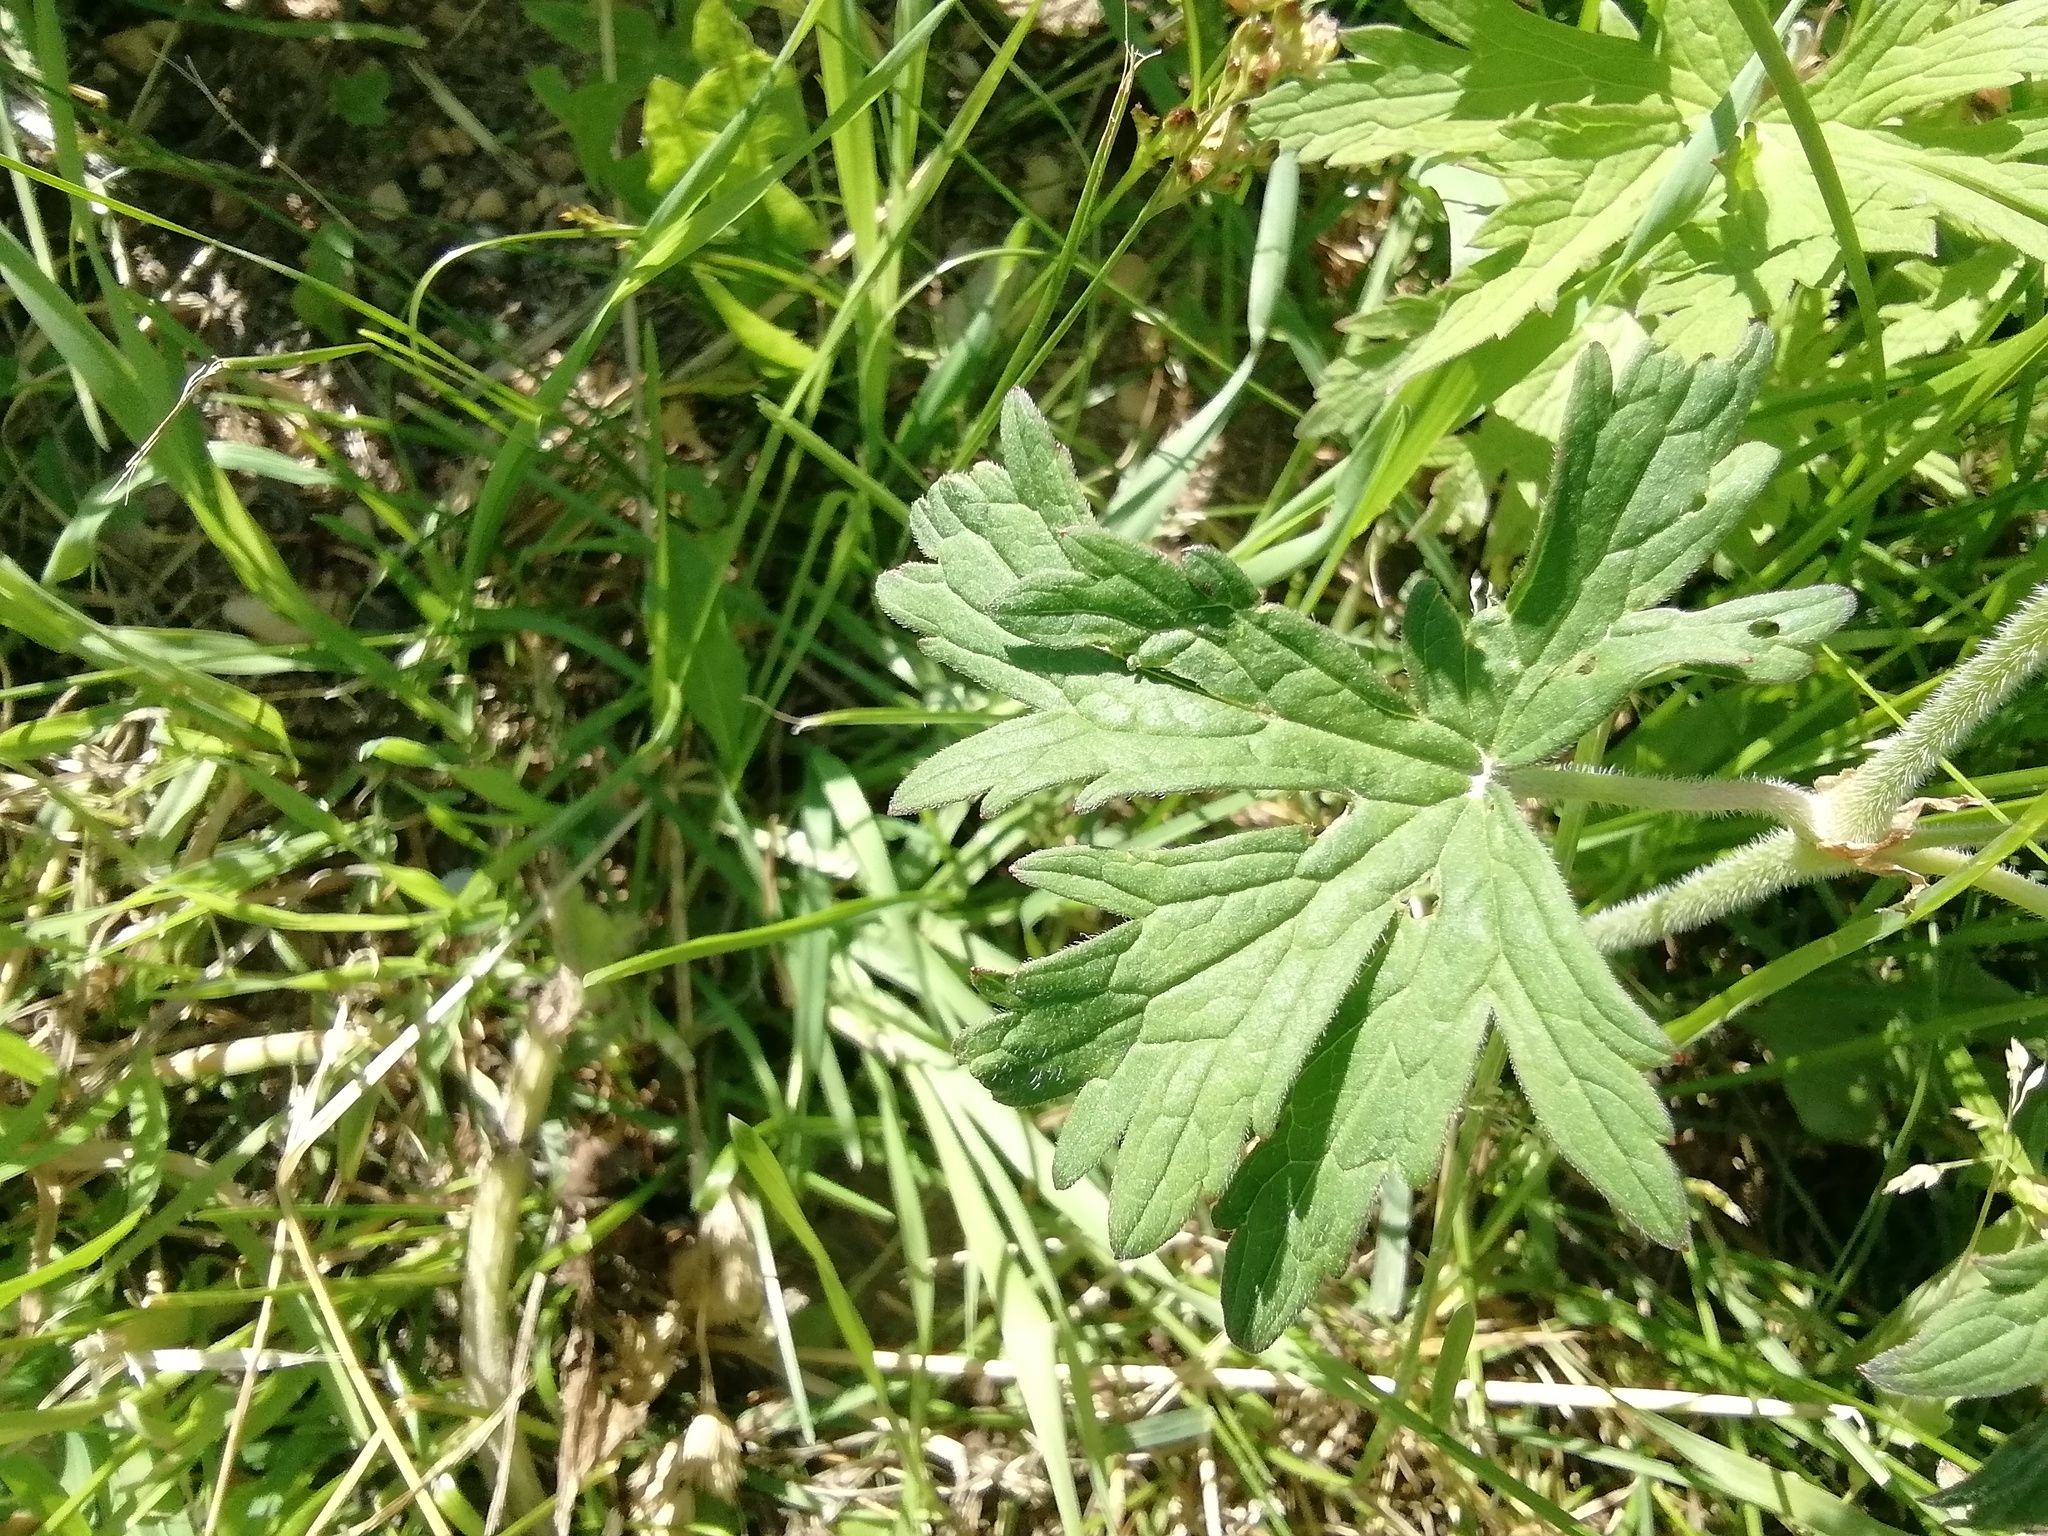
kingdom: Plantae
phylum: Tracheophyta
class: Magnoliopsida
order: Geraniales
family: Geraniaceae
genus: Geranium
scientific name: Geranium pratense
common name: Meadow crane's-bill
